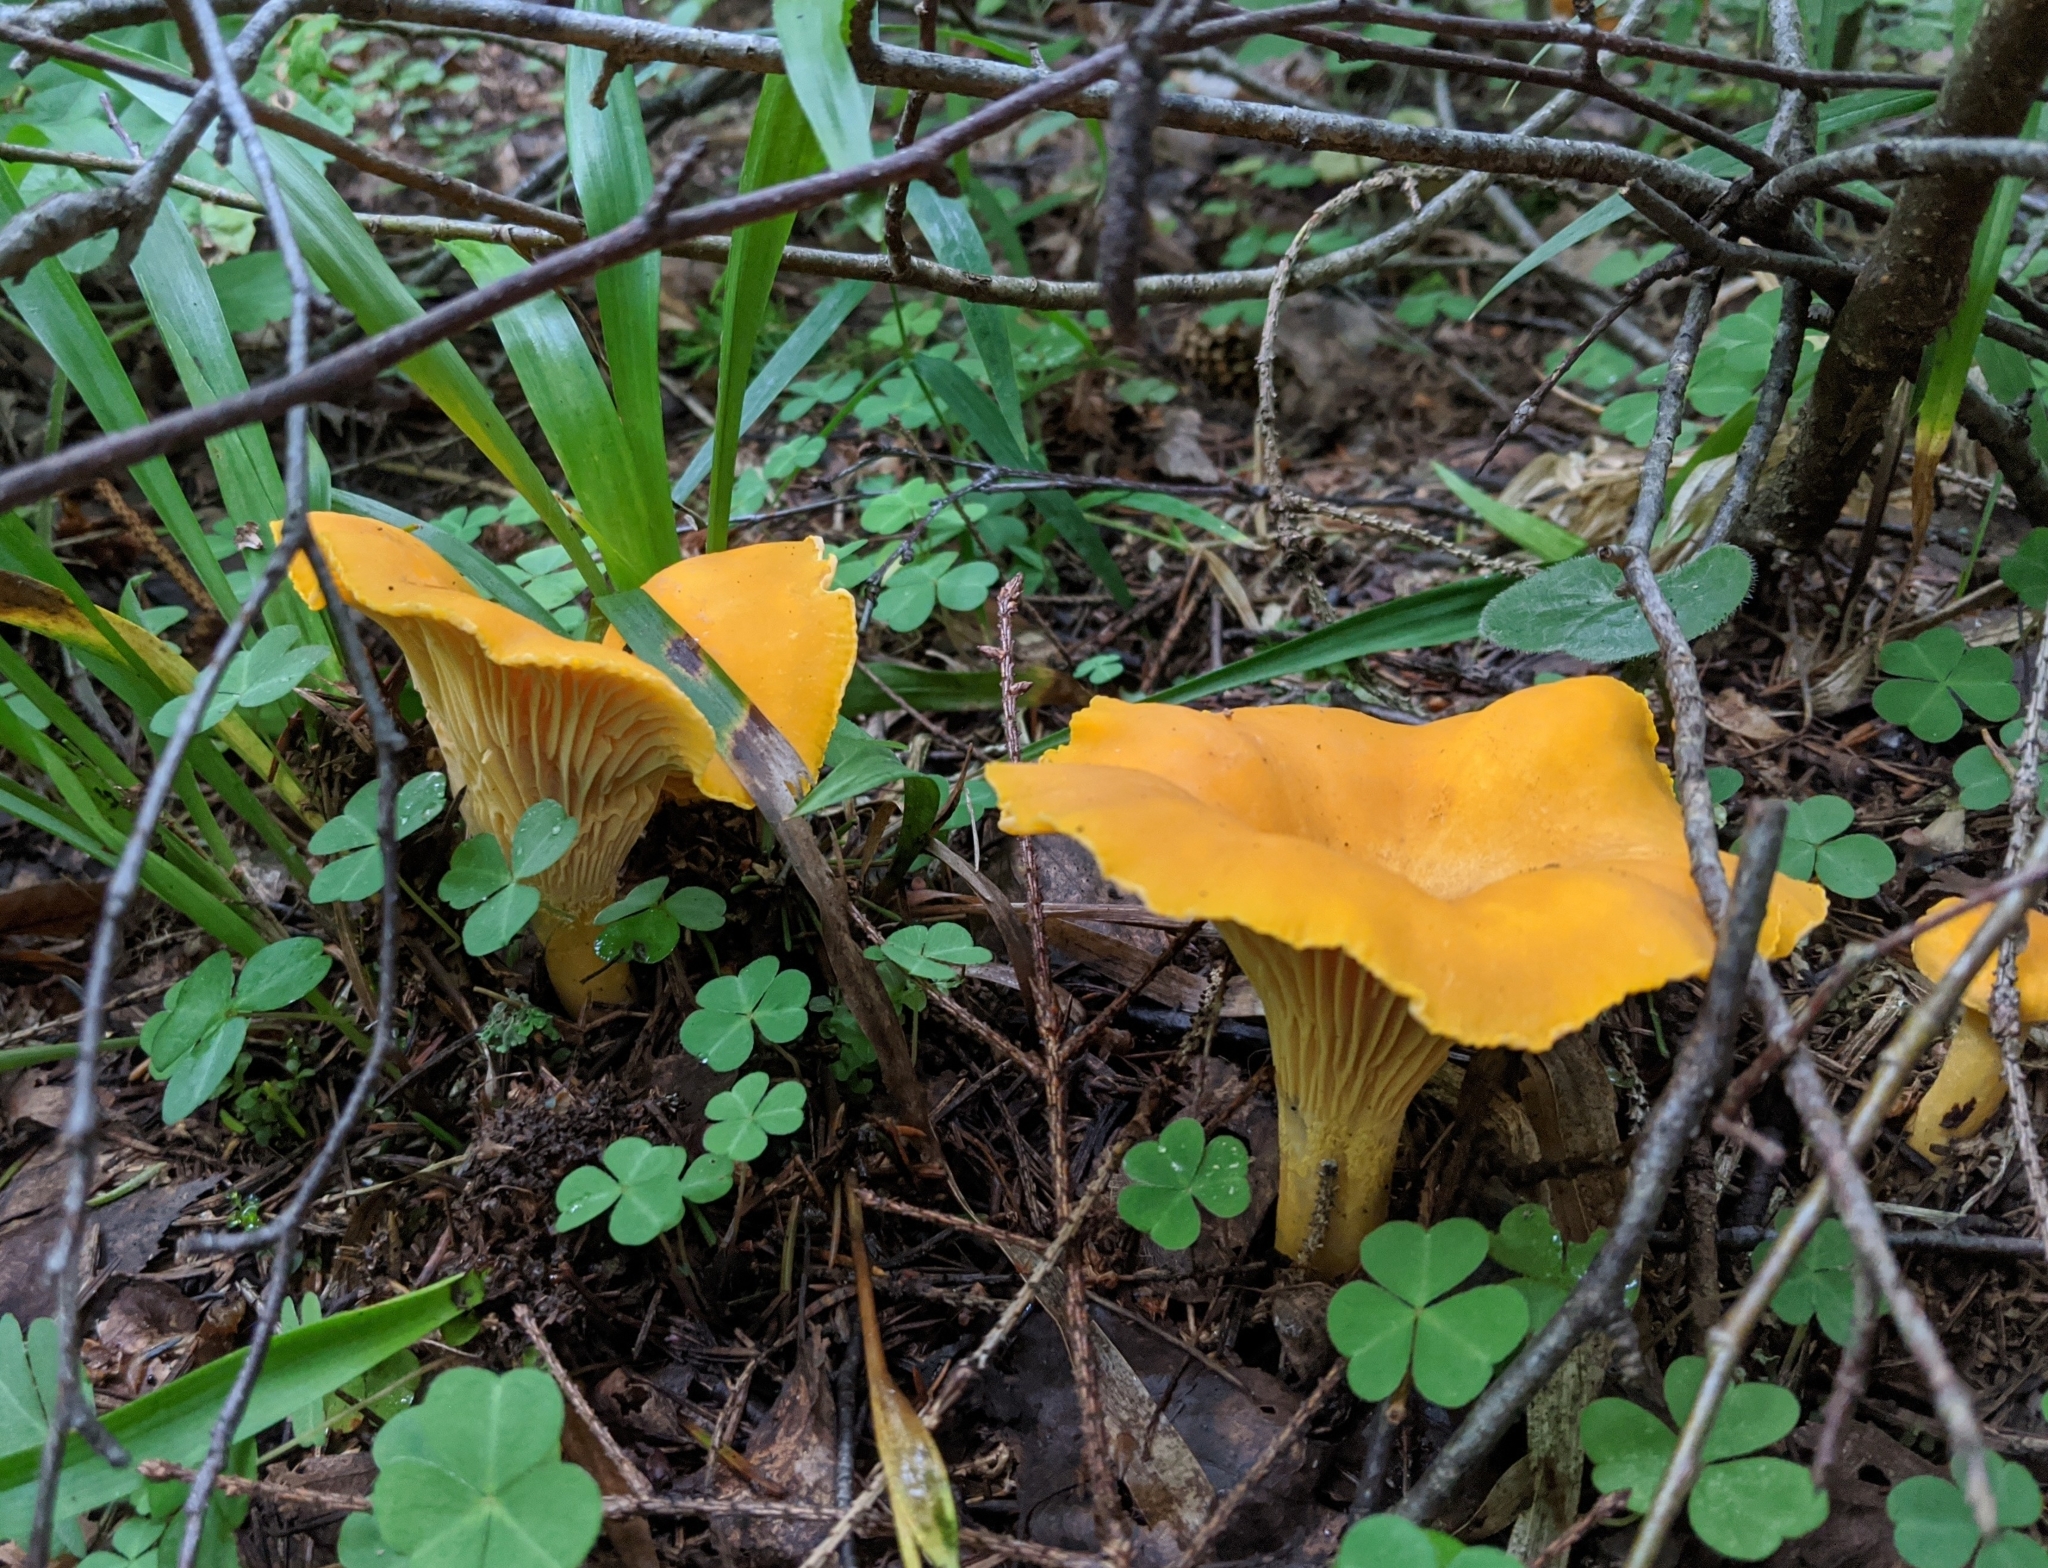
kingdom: Fungi
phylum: Basidiomycota
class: Agaricomycetes
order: Cantharellales
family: Hydnaceae
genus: Cantharellus
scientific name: Cantharellus cibarius
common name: Chanterelle
